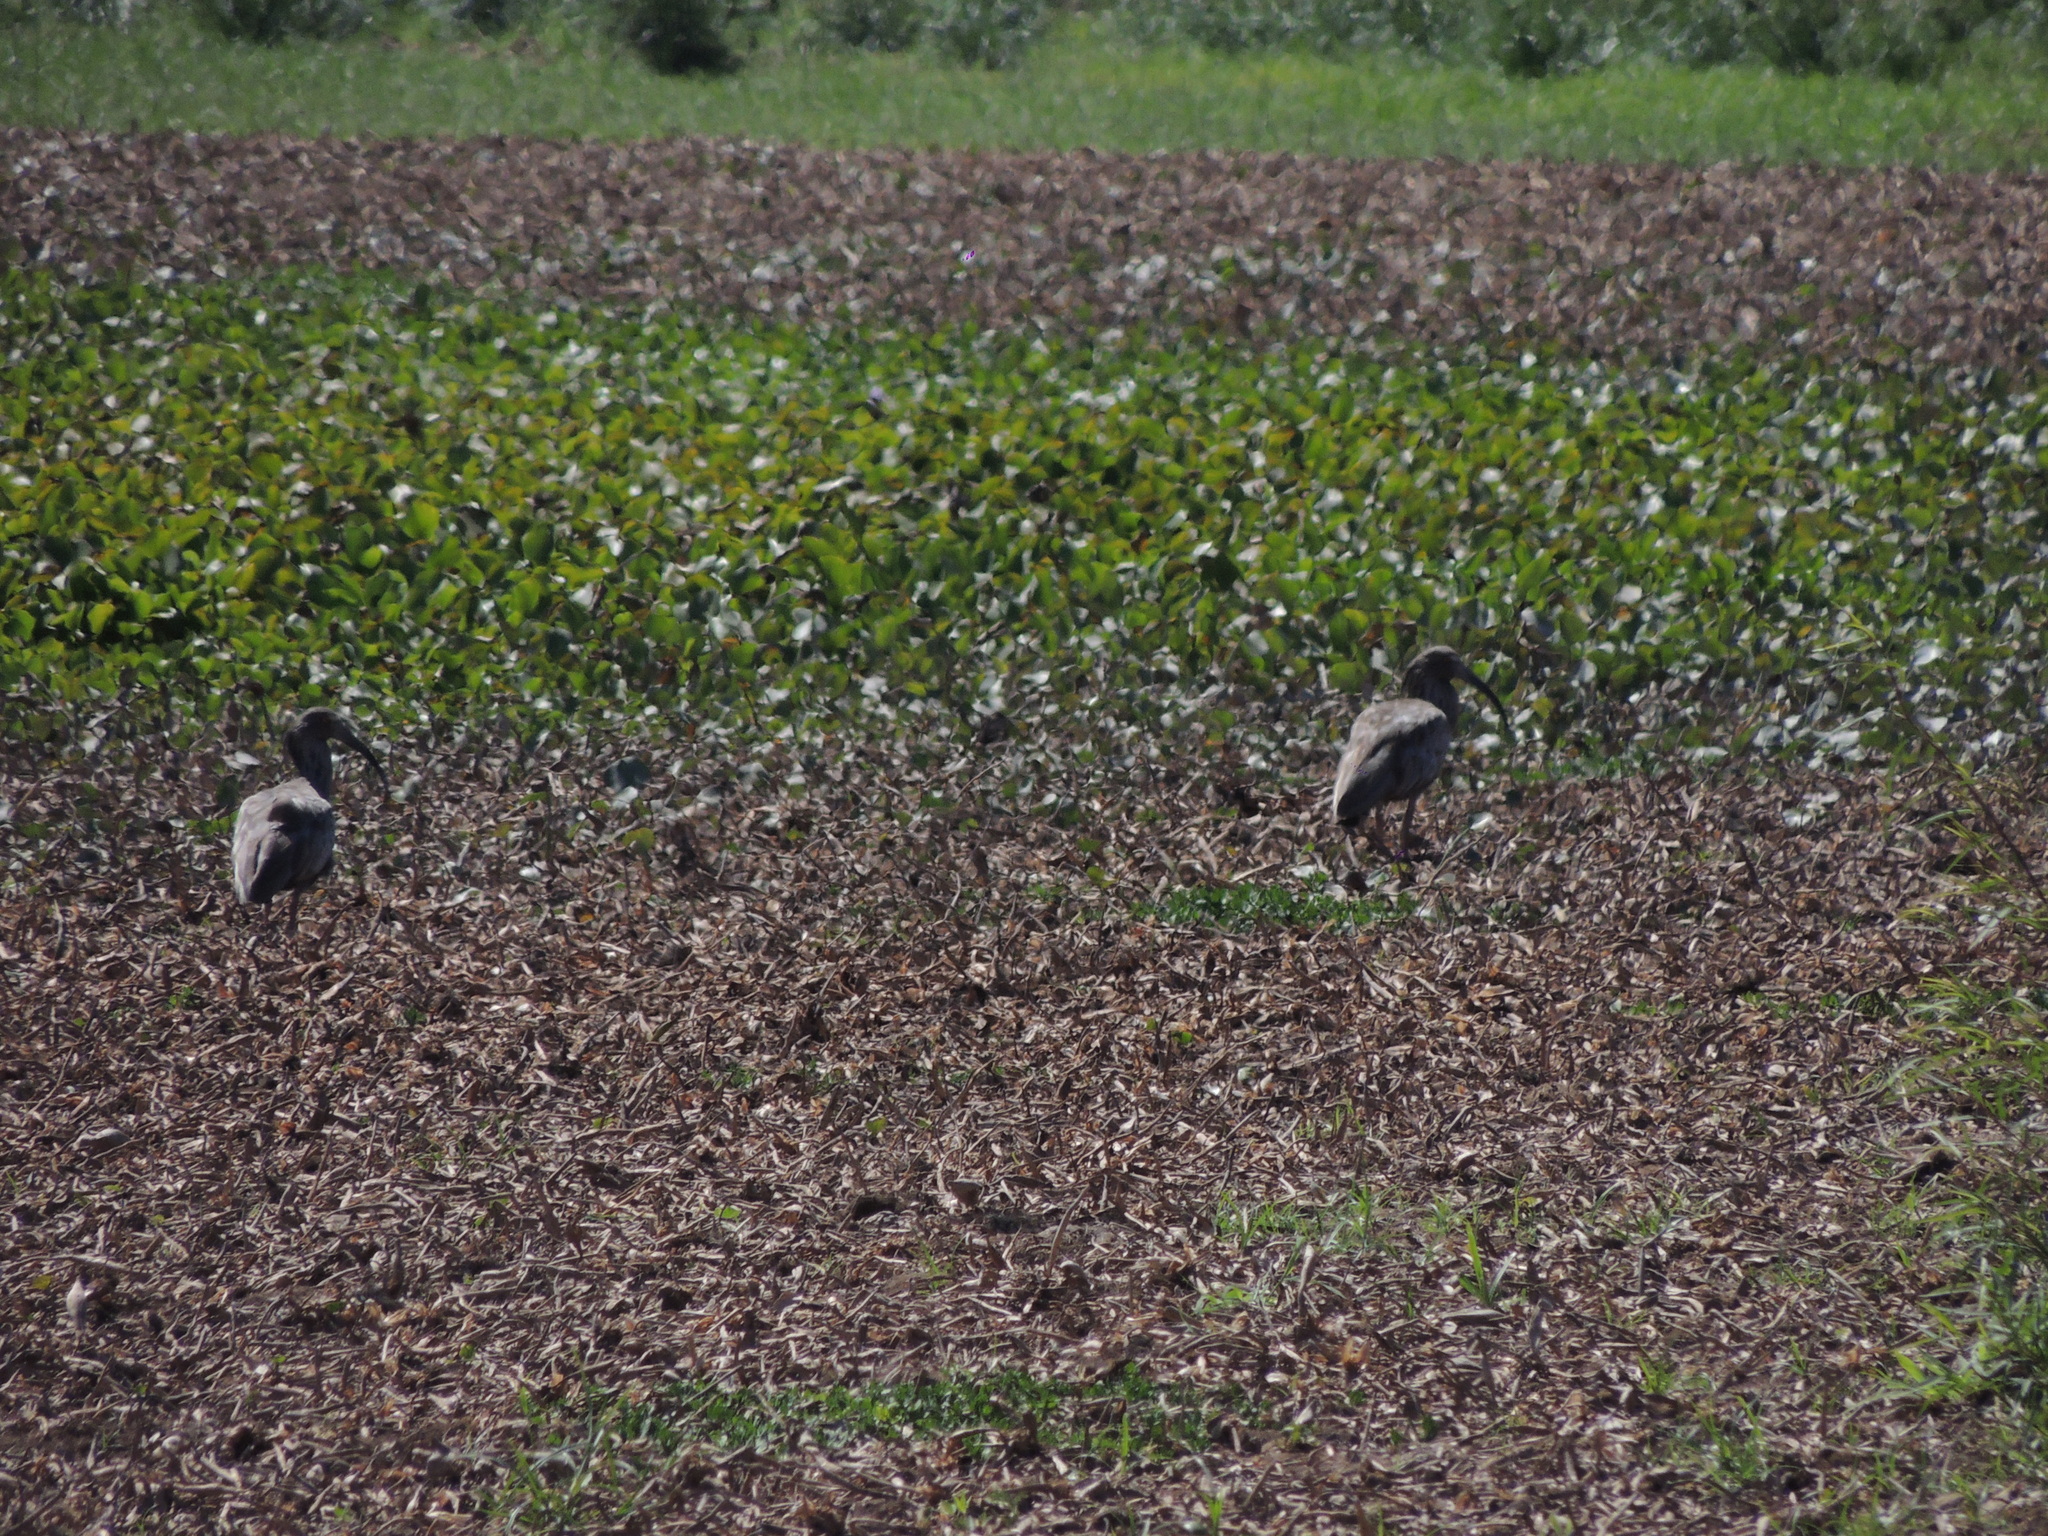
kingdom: Animalia
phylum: Chordata
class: Aves
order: Pelecaniformes
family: Threskiornithidae
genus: Theristicus
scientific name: Theristicus caerulescens
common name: Plumbeous ibis
